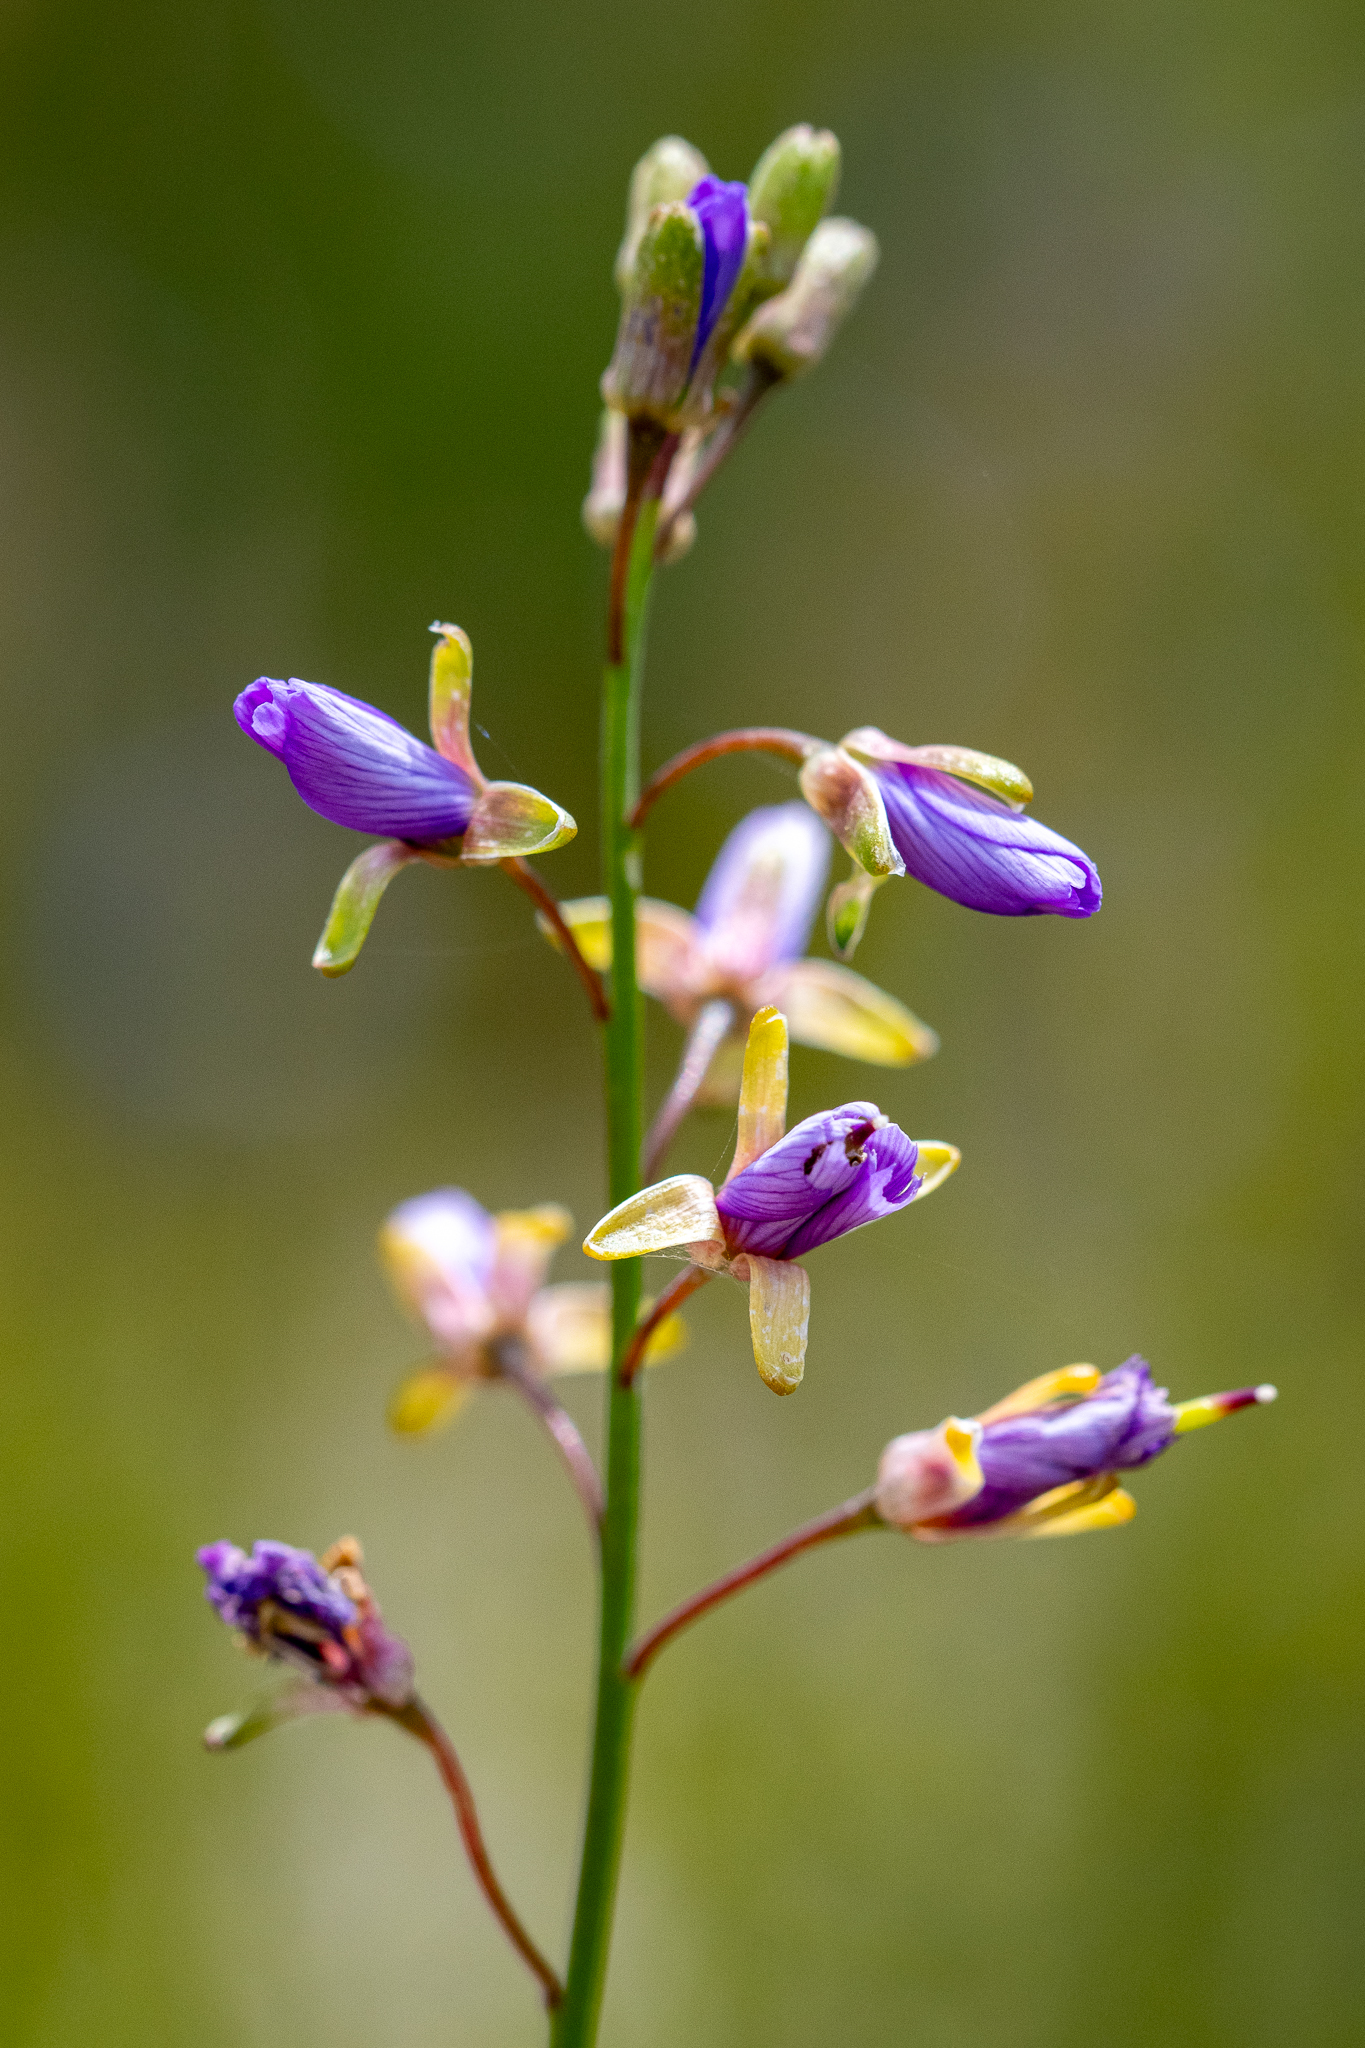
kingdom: Plantae
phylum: Tracheophyta
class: Magnoliopsida
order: Brassicales
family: Brassicaceae
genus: Heliophila
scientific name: Heliophila linearis
